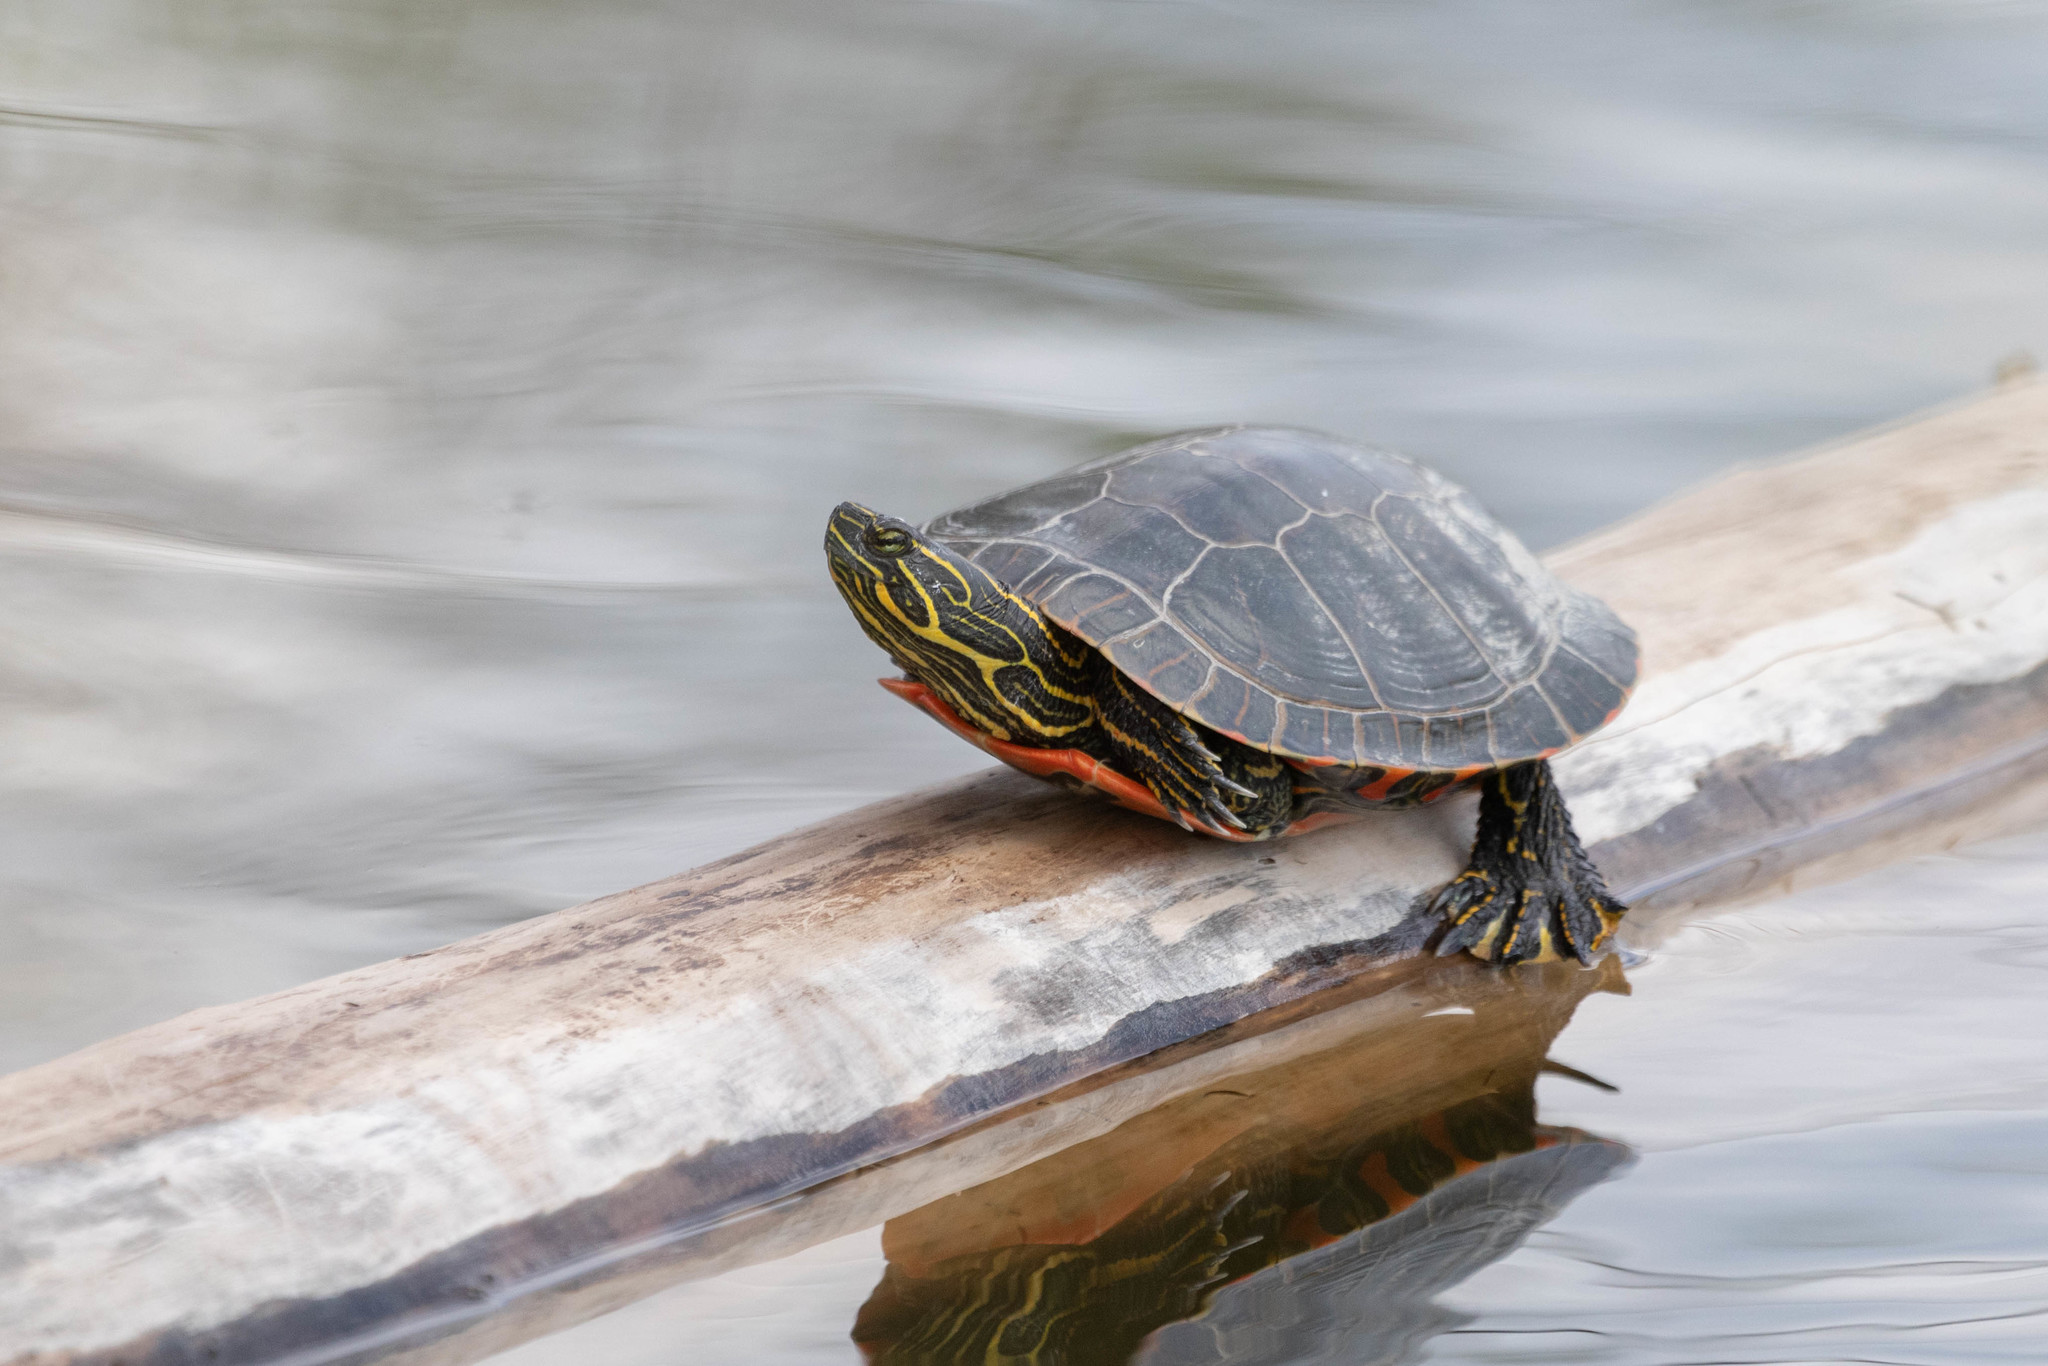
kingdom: Animalia
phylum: Chordata
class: Testudines
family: Emydidae
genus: Chrysemys
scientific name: Chrysemys picta
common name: Painted turtle
